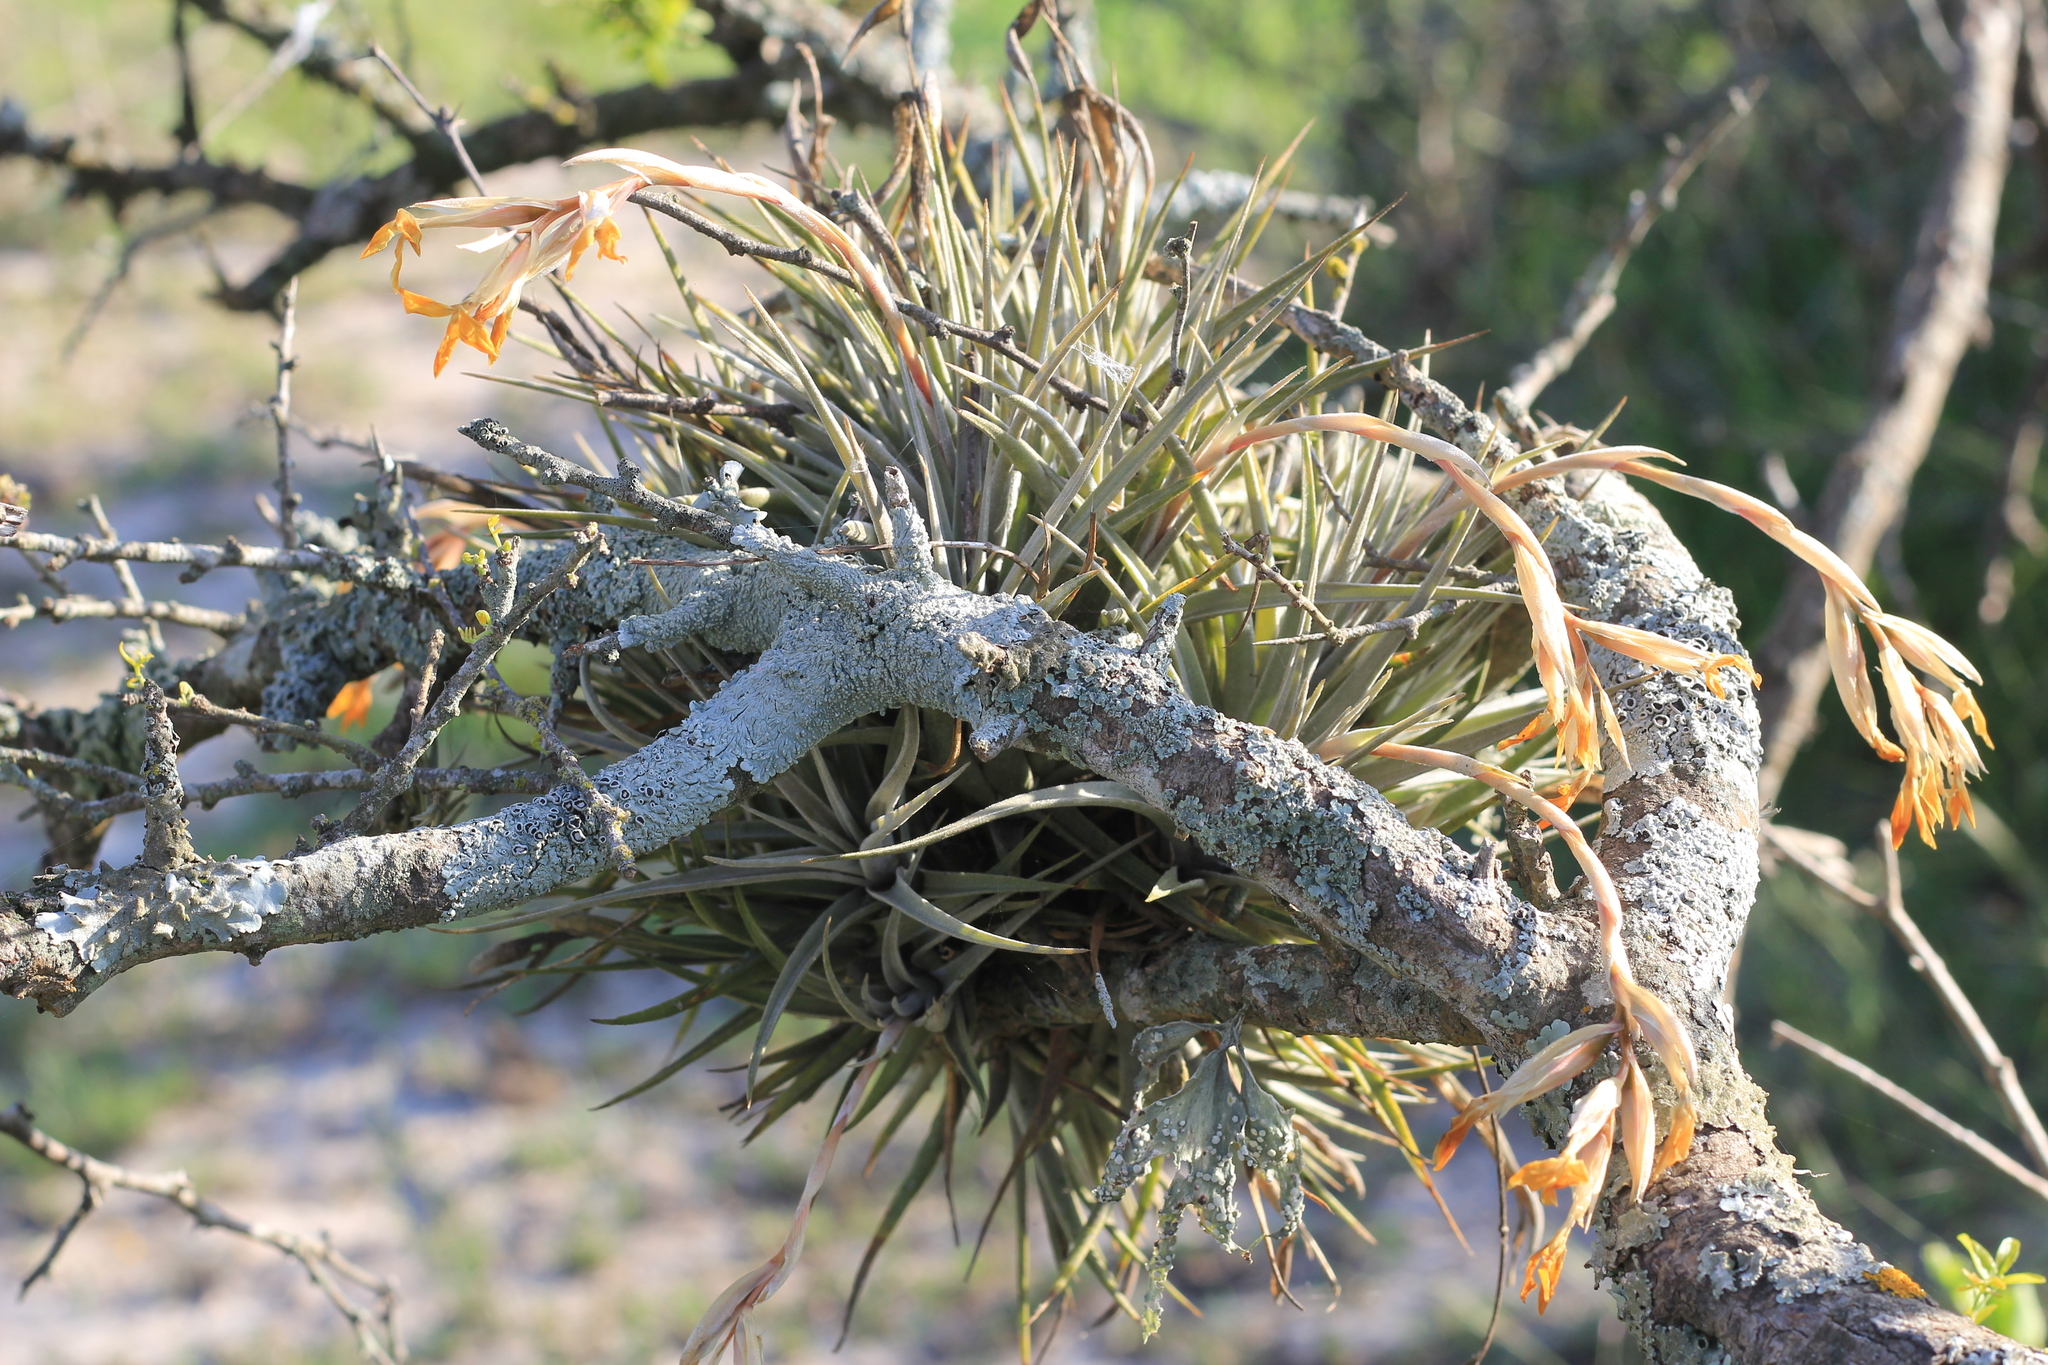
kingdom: Plantae
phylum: Tracheophyta
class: Liliopsida
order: Poales
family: Bromeliaceae
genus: Tillandsia
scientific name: Tillandsia ixioides
